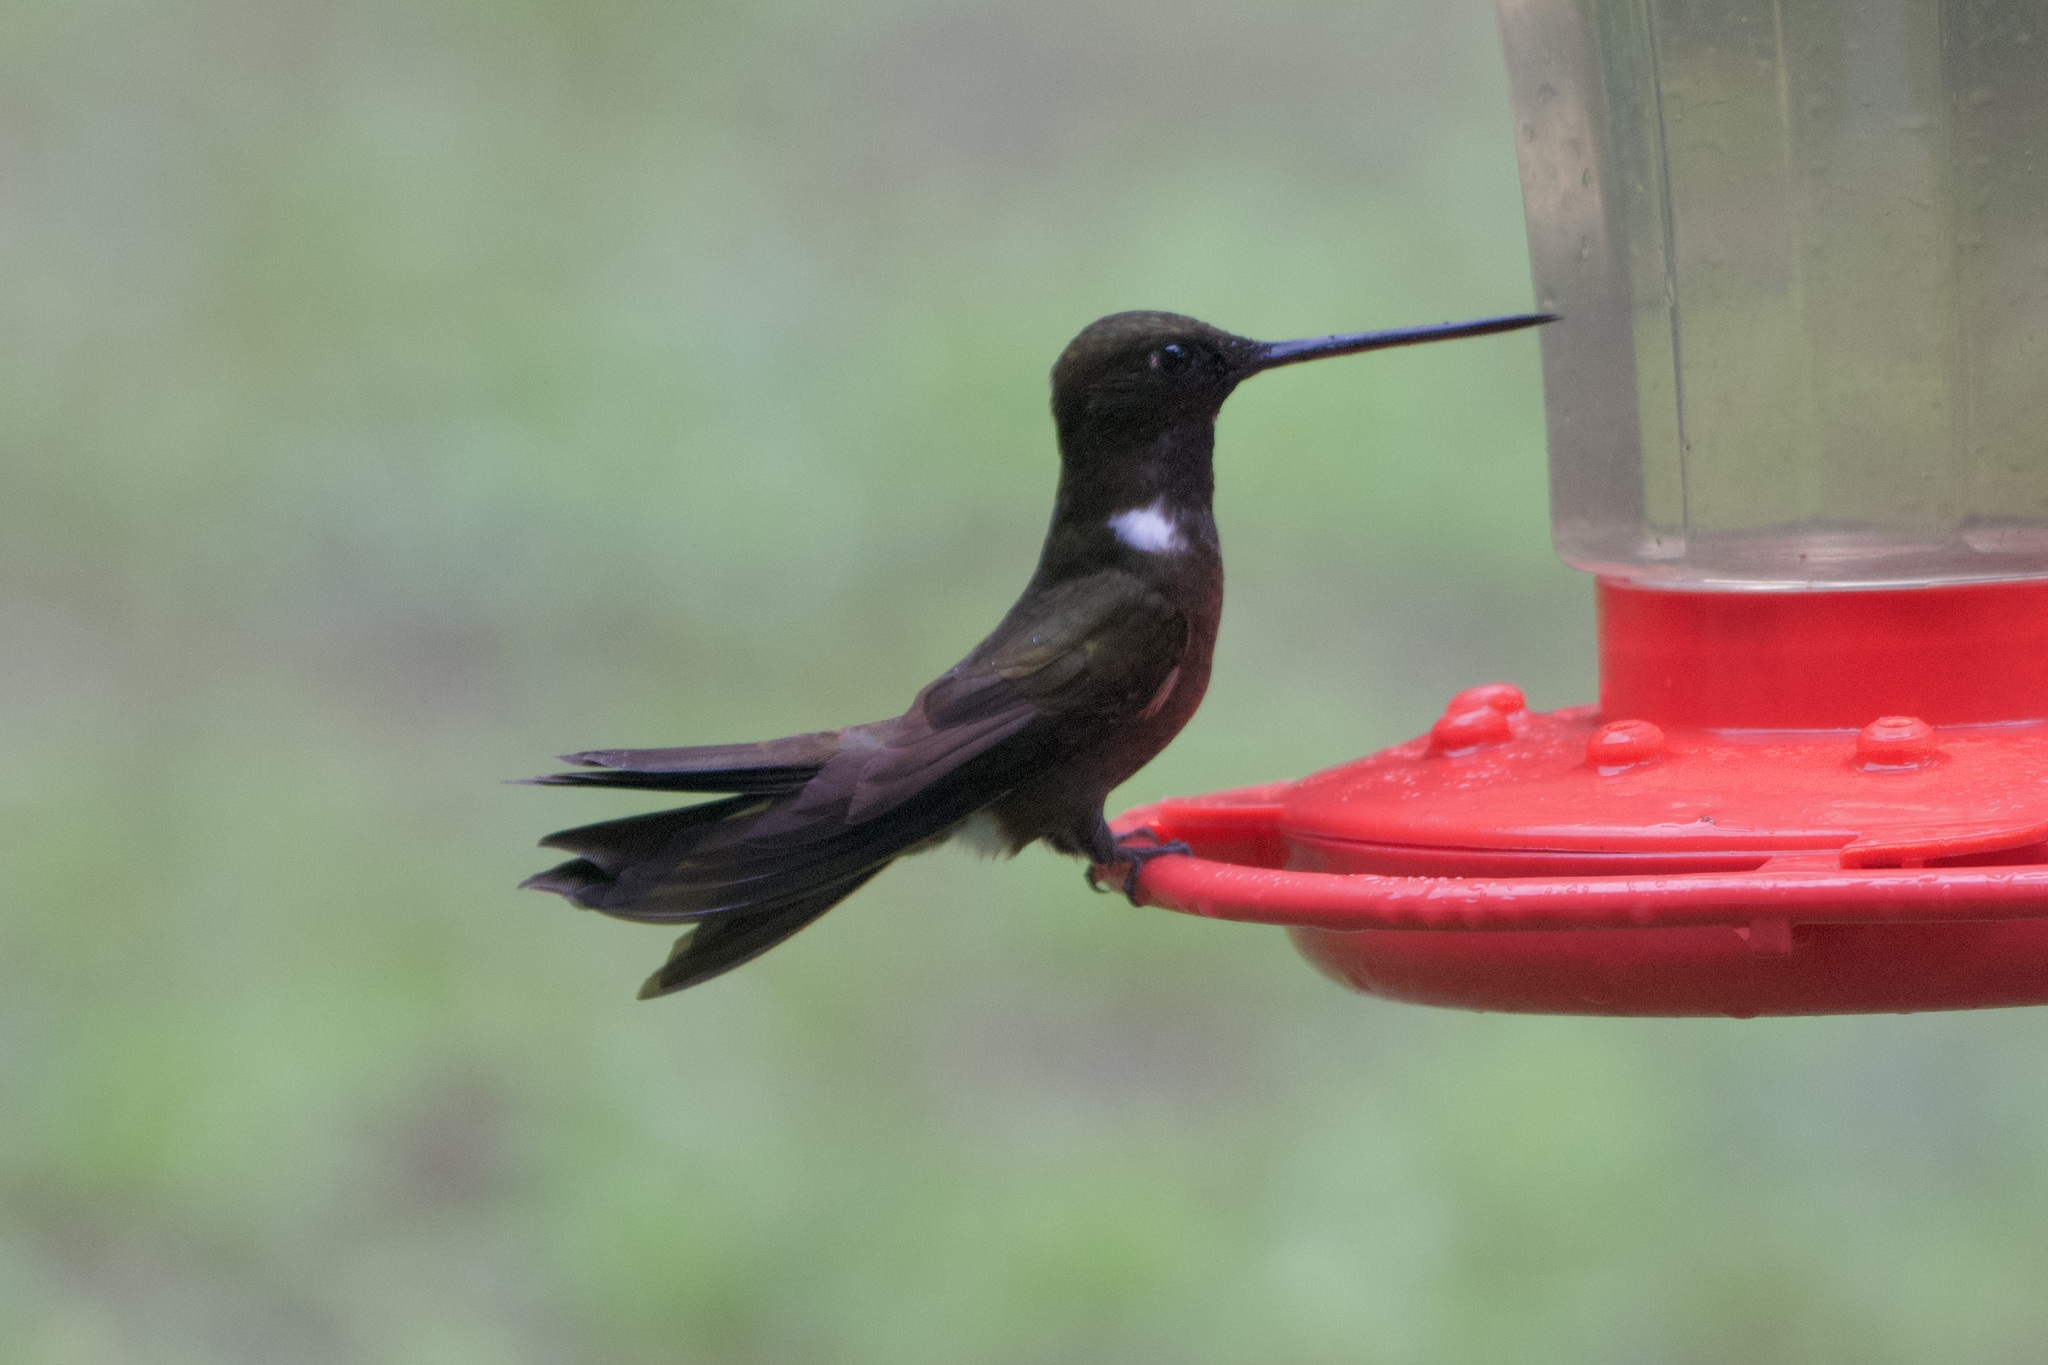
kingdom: Animalia
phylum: Chordata
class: Aves
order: Apodiformes
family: Trochilidae
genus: Coeligena
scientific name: Coeligena wilsoni
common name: Brown inca
